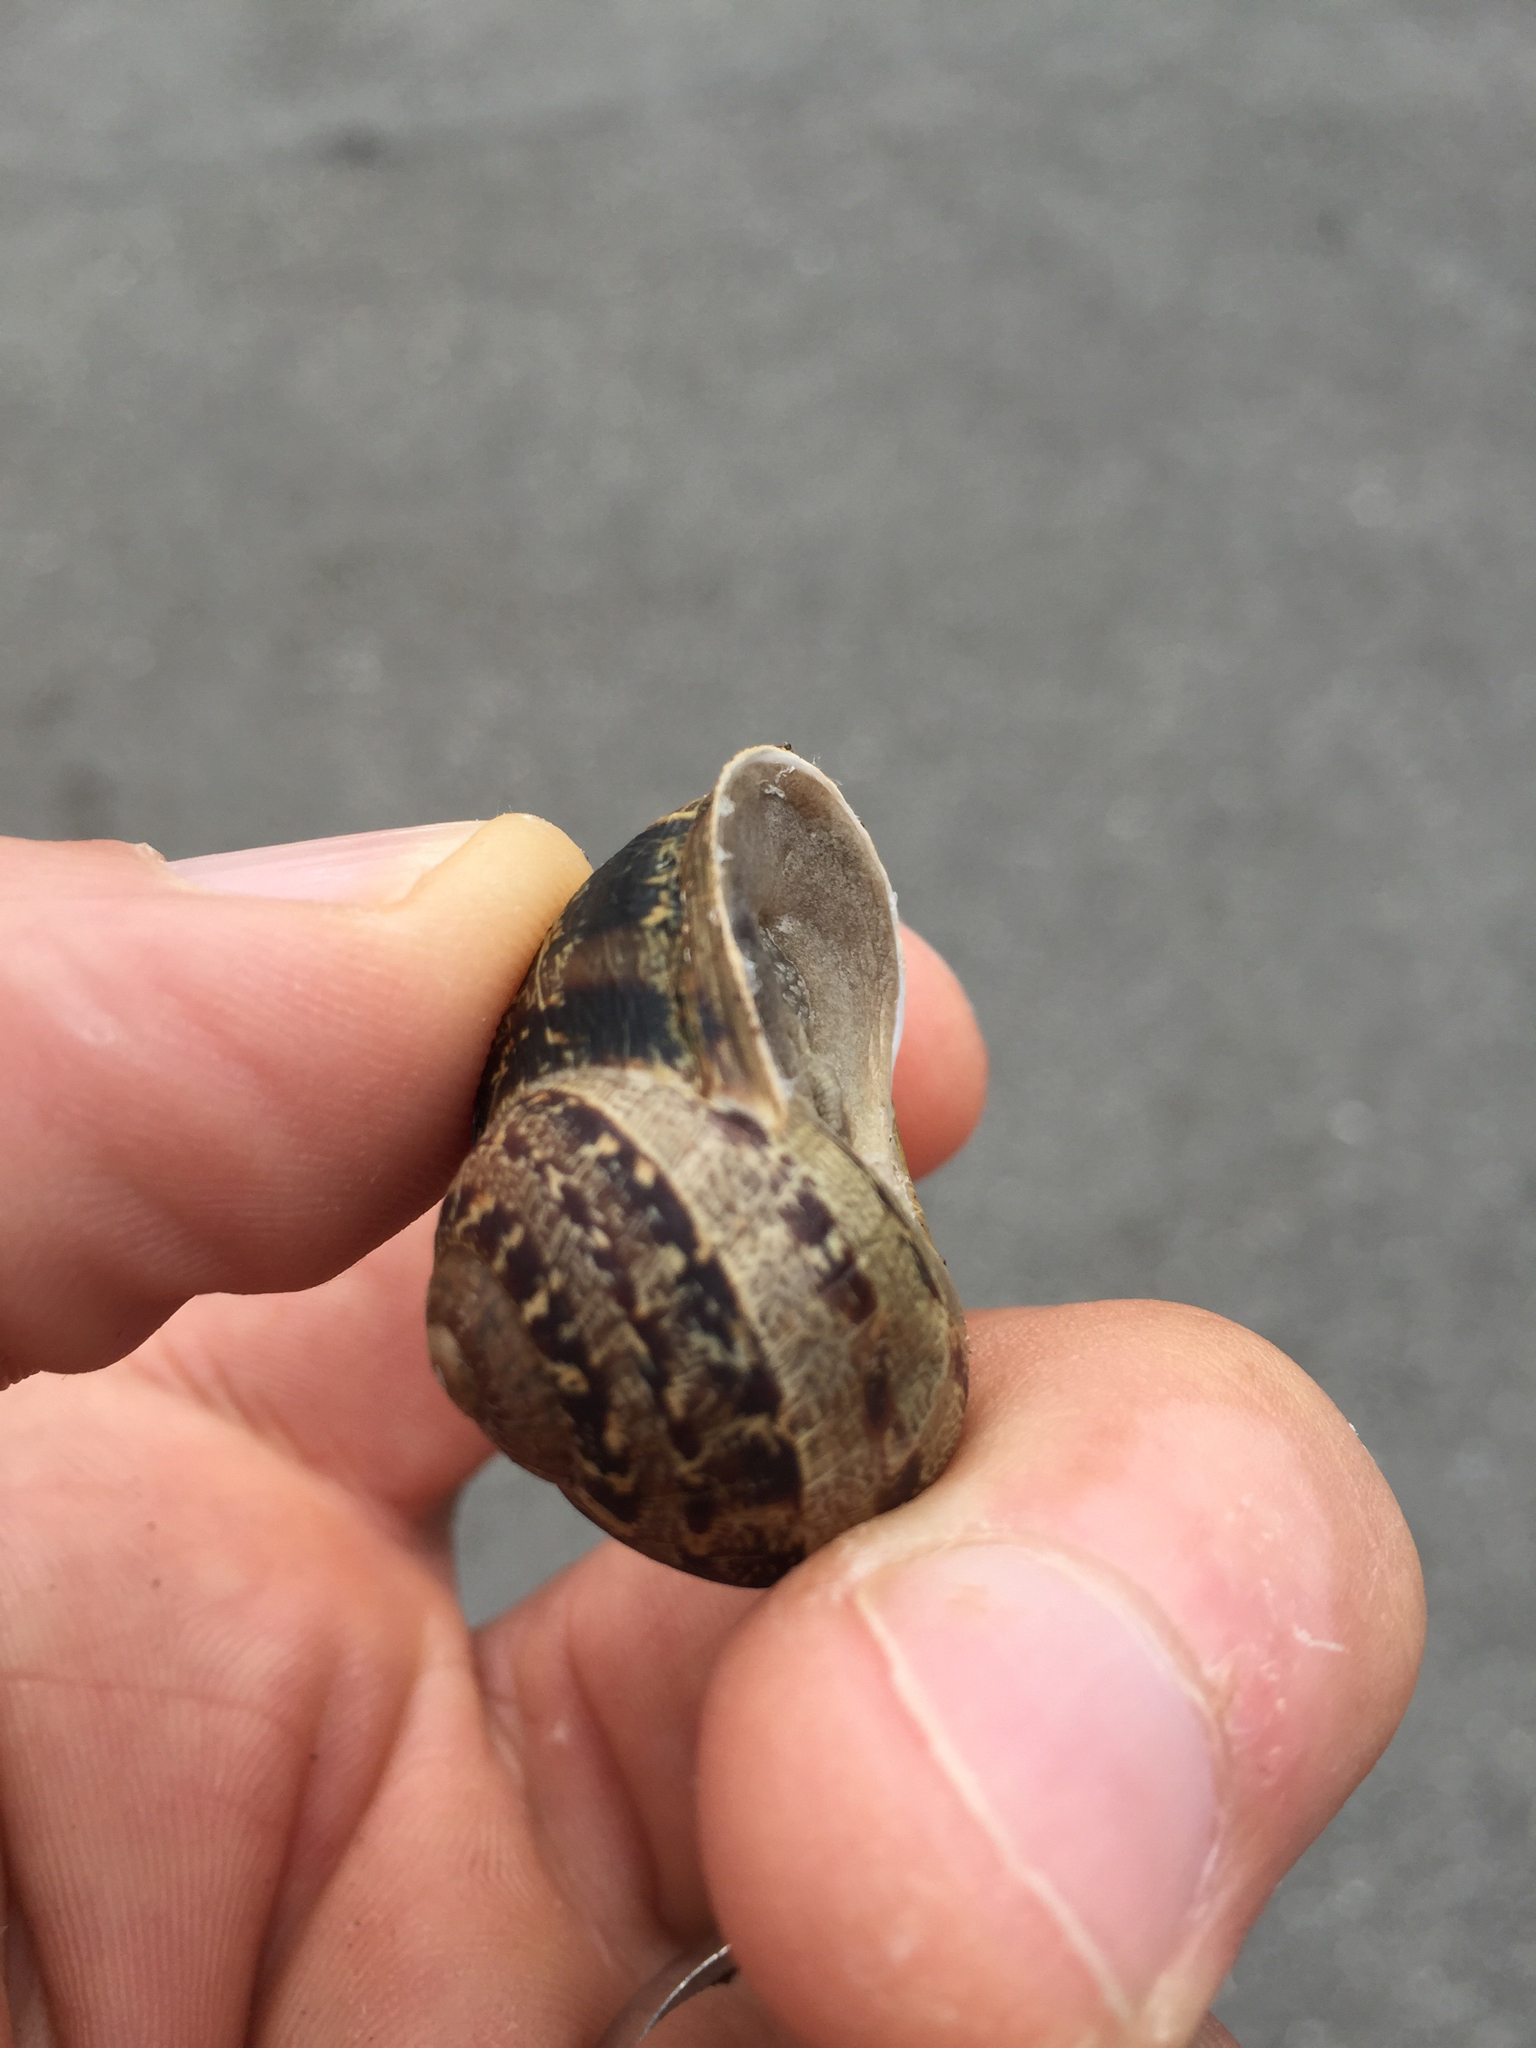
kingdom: Animalia
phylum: Mollusca
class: Gastropoda
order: Stylommatophora
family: Helicidae
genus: Cornu
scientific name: Cornu aspersum
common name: Brown garden snail
